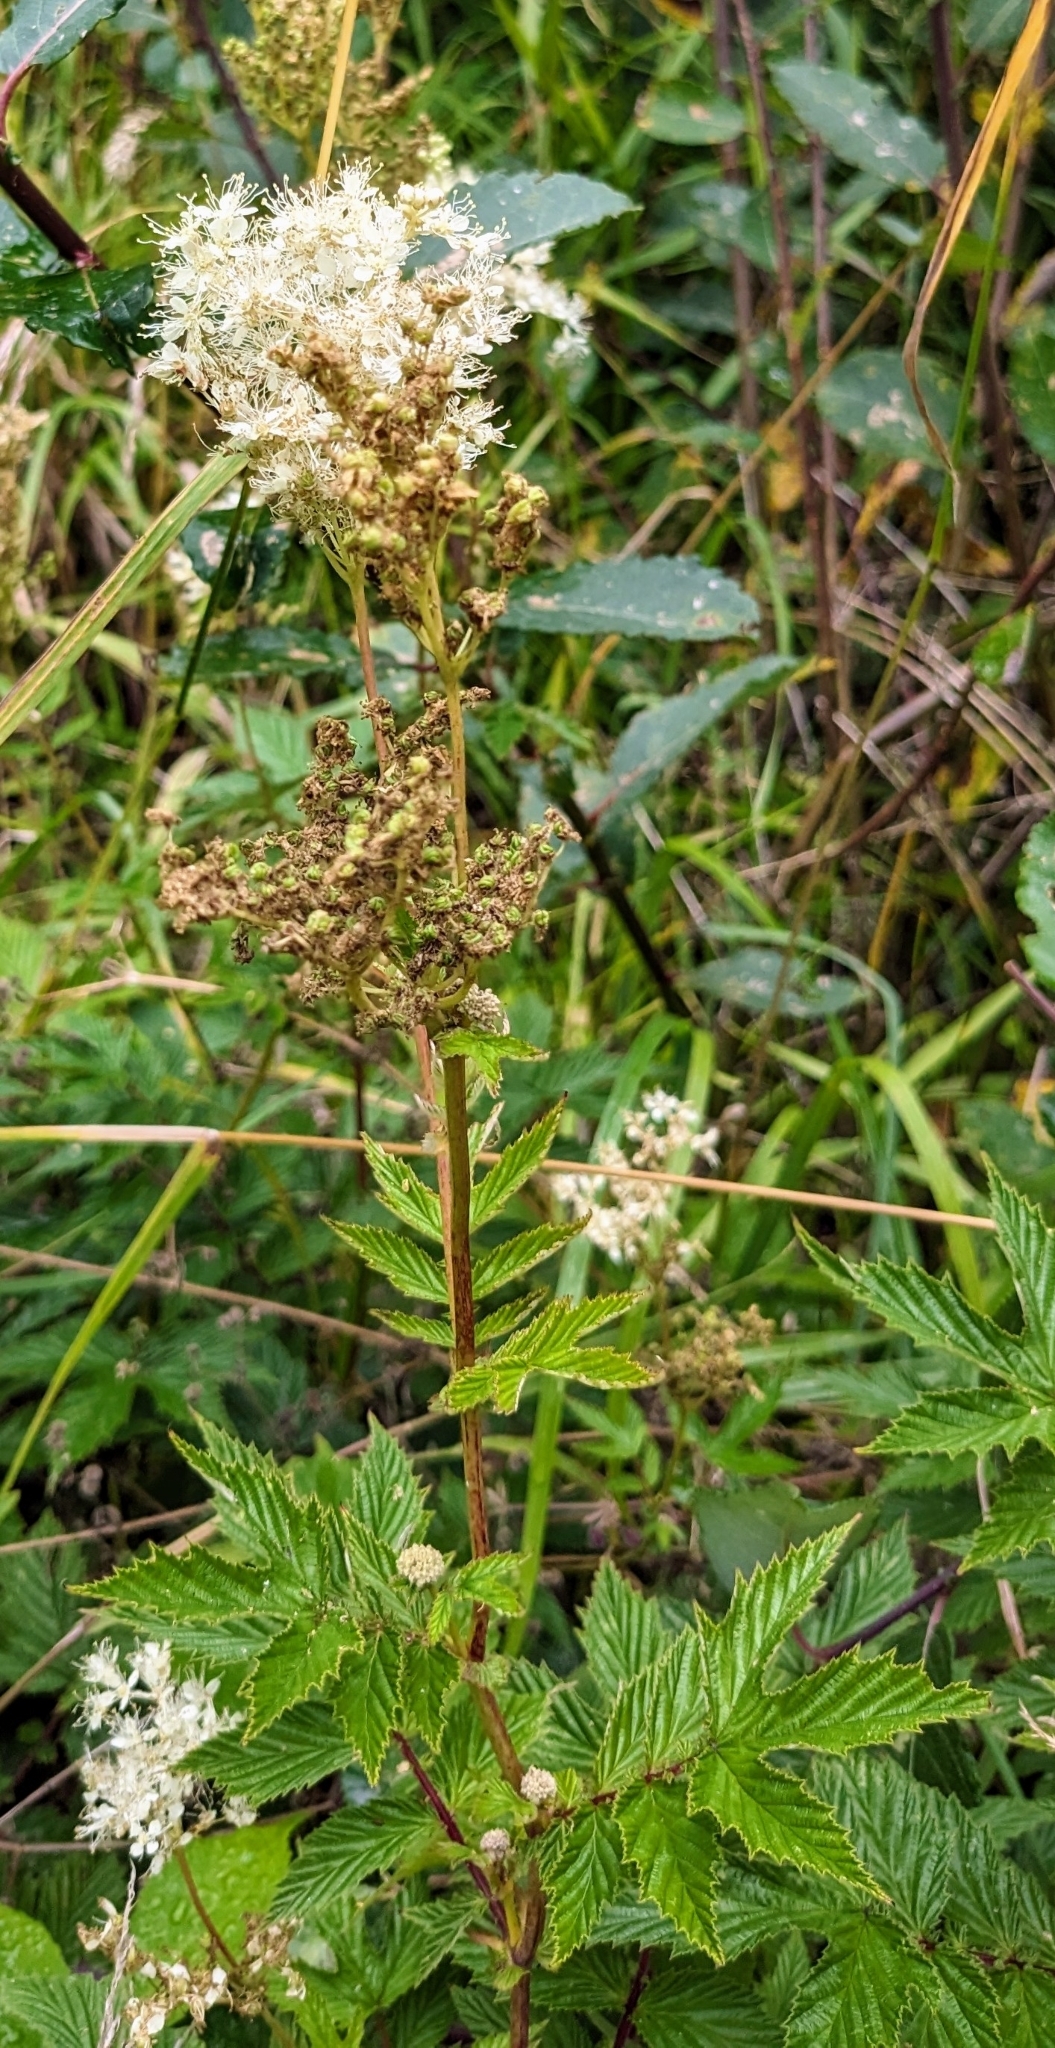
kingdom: Plantae
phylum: Tracheophyta
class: Magnoliopsida
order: Rosales
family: Rosaceae
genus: Filipendula
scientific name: Filipendula ulmaria
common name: Meadowsweet
